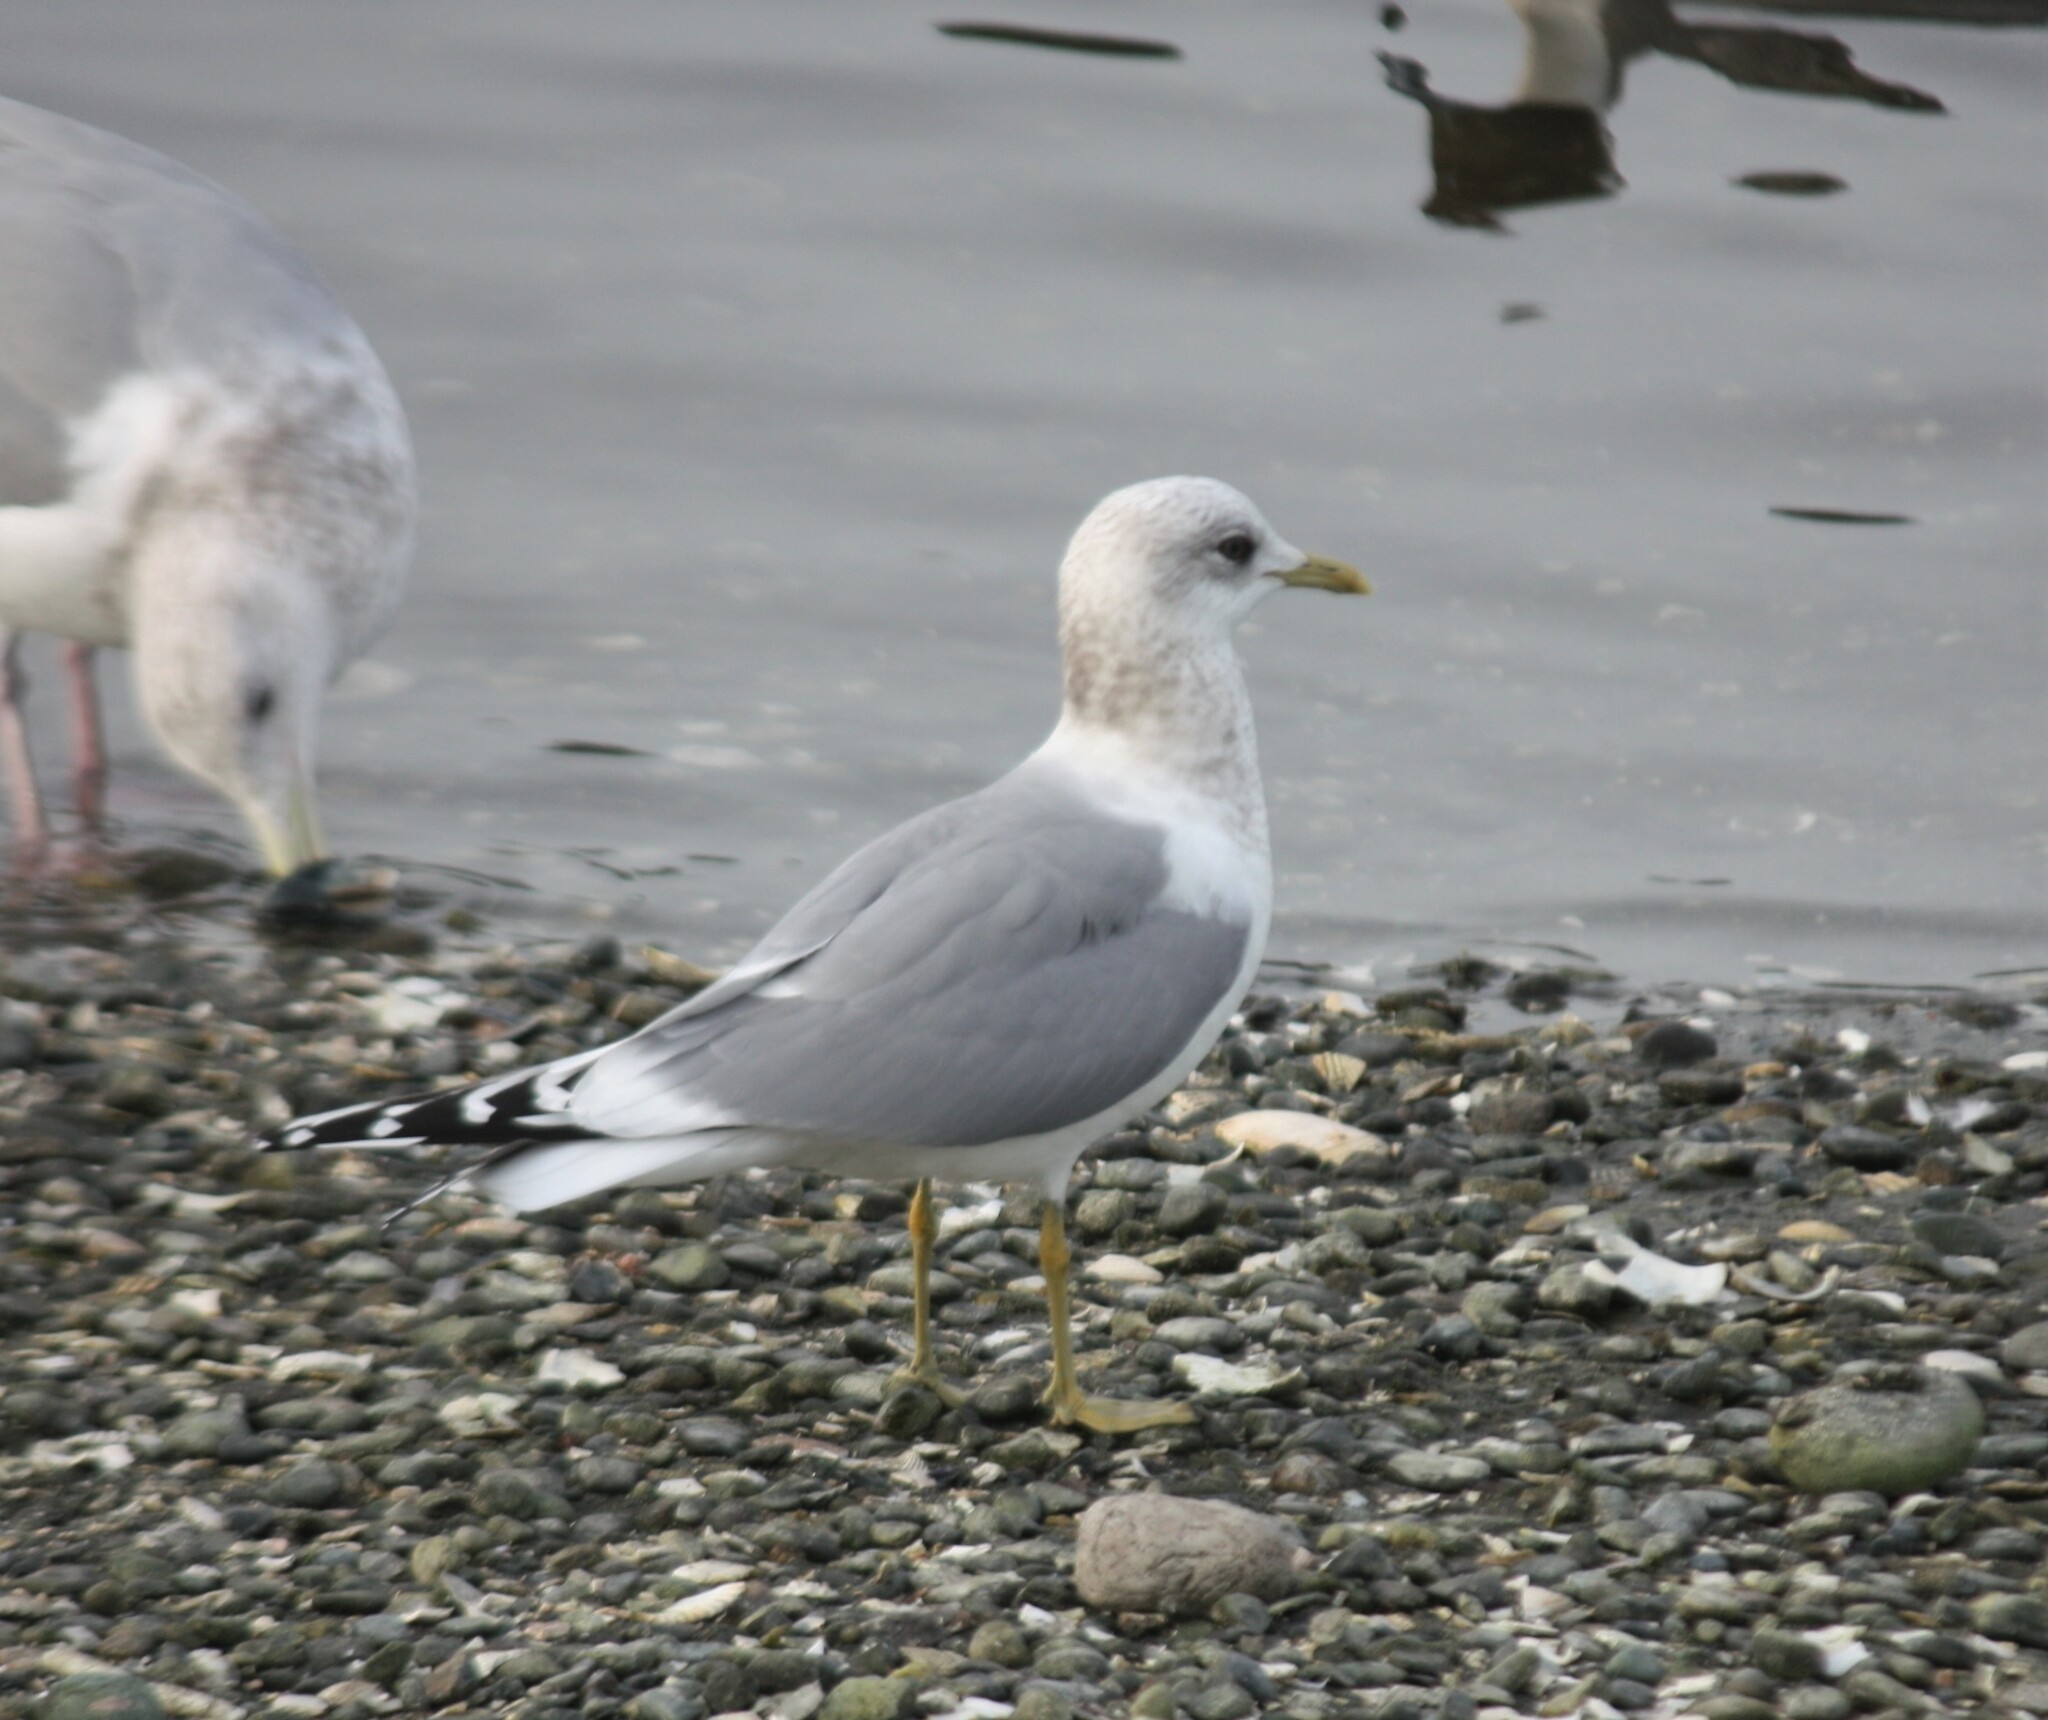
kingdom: Animalia
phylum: Chordata
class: Aves
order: Charadriiformes
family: Laridae
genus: Larus
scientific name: Larus brachyrhynchus
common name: Short-billed gull
